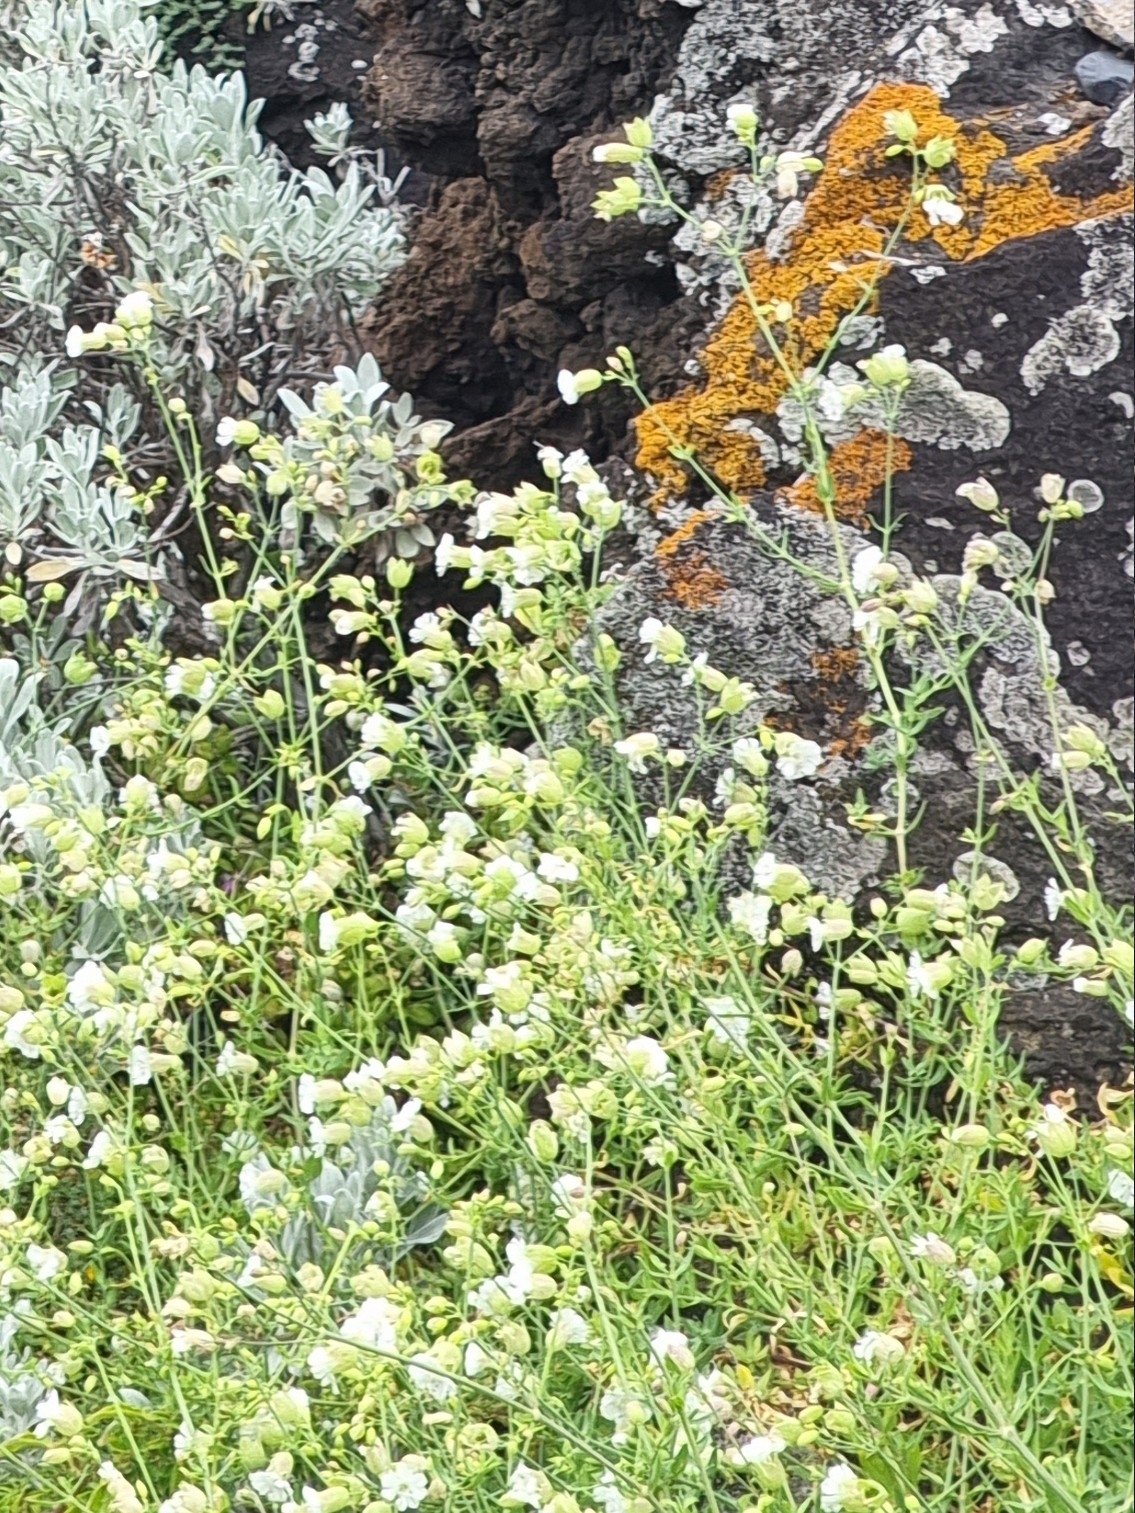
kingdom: Plantae
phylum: Tracheophyta
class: Magnoliopsida
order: Caryophyllales
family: Caryophyllaceae
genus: Silene
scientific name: Silene vulgaris
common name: Bladder campion
